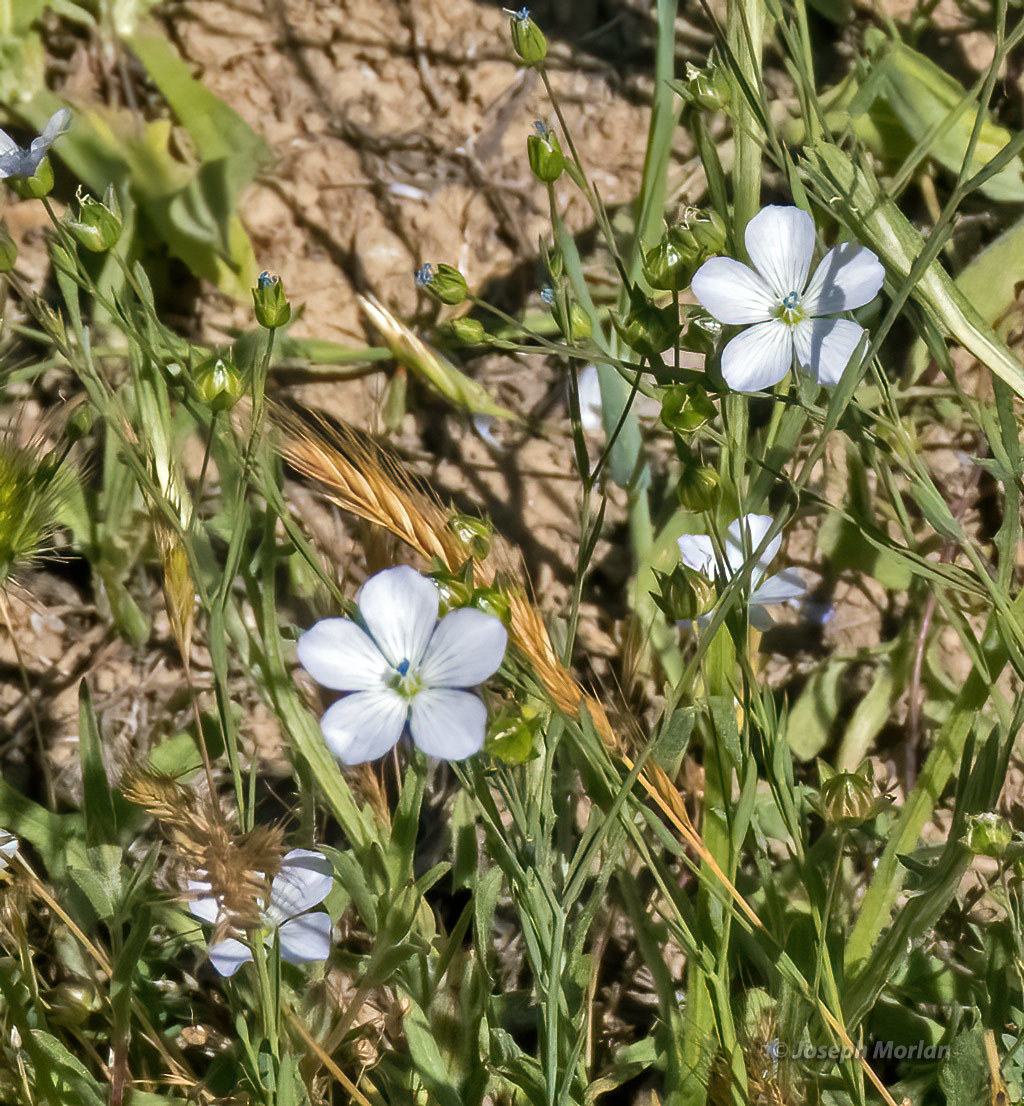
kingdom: Plantae
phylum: Tracheophyta
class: Magnoliopsida
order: Malpighiales
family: Linaceae
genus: Linum
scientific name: Linum bienne
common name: Pale flax
